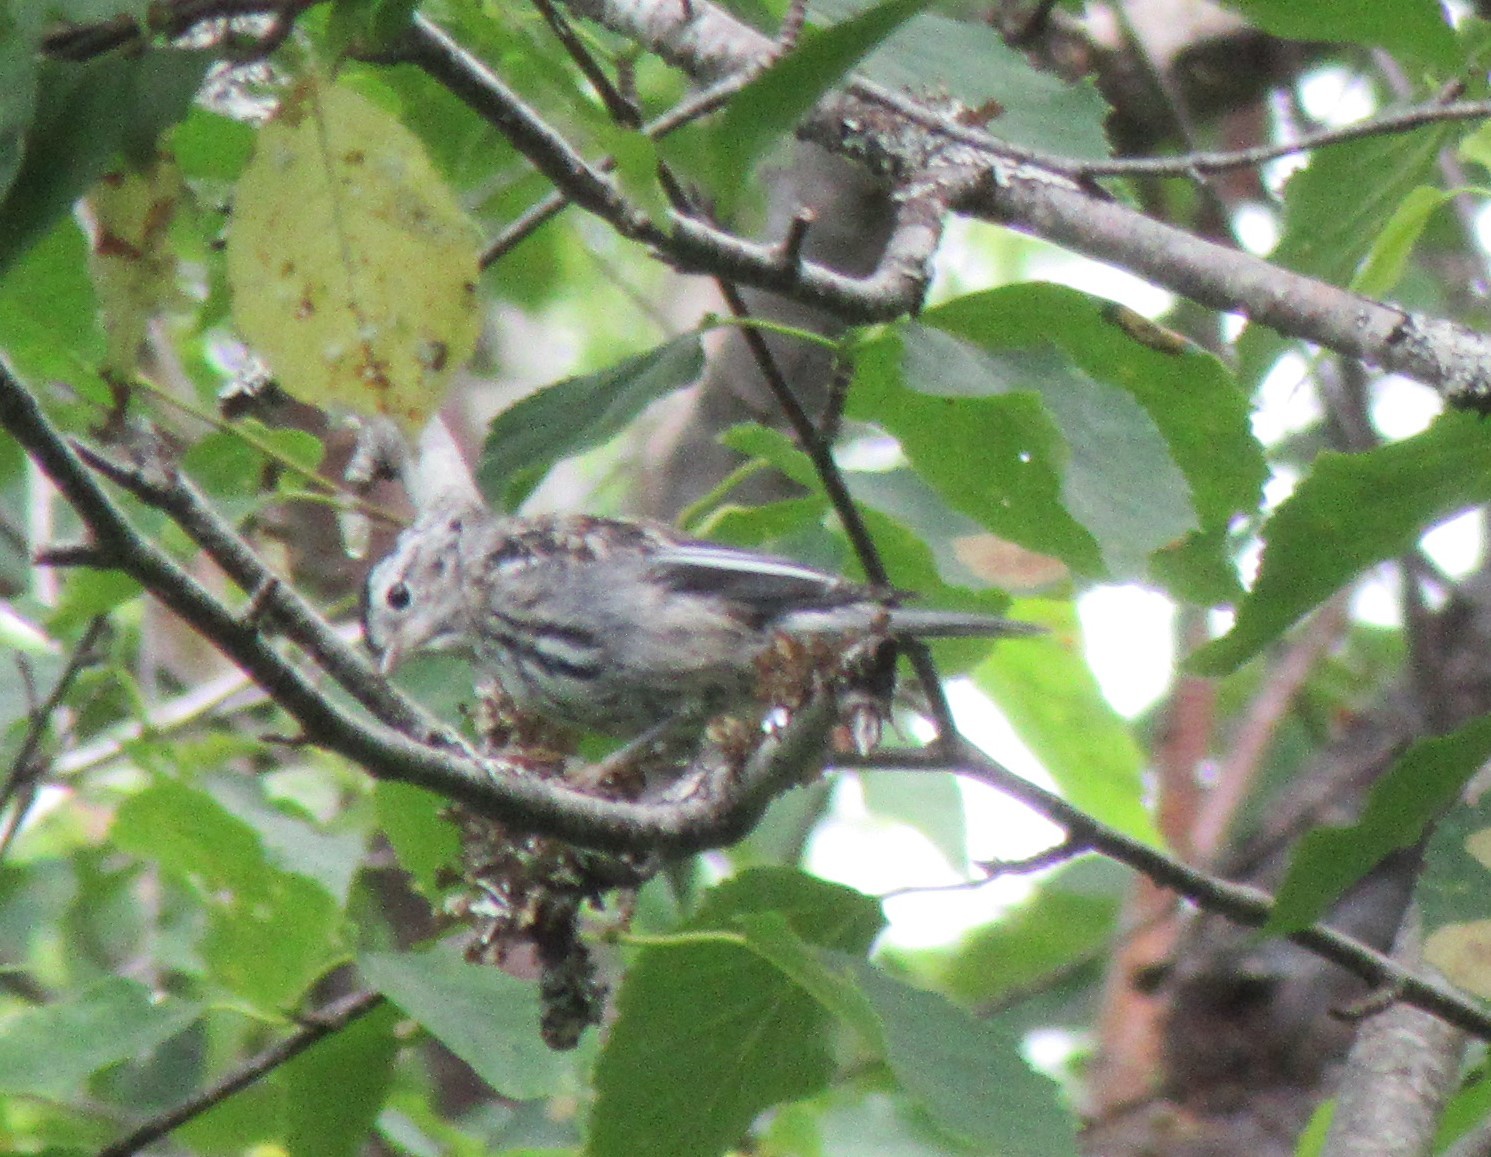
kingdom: Animalia
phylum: Chordata
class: Aves
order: Passeriformes
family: Parulidae
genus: Mniotilta
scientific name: Mniotilta varia
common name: Black-and-white warbler
